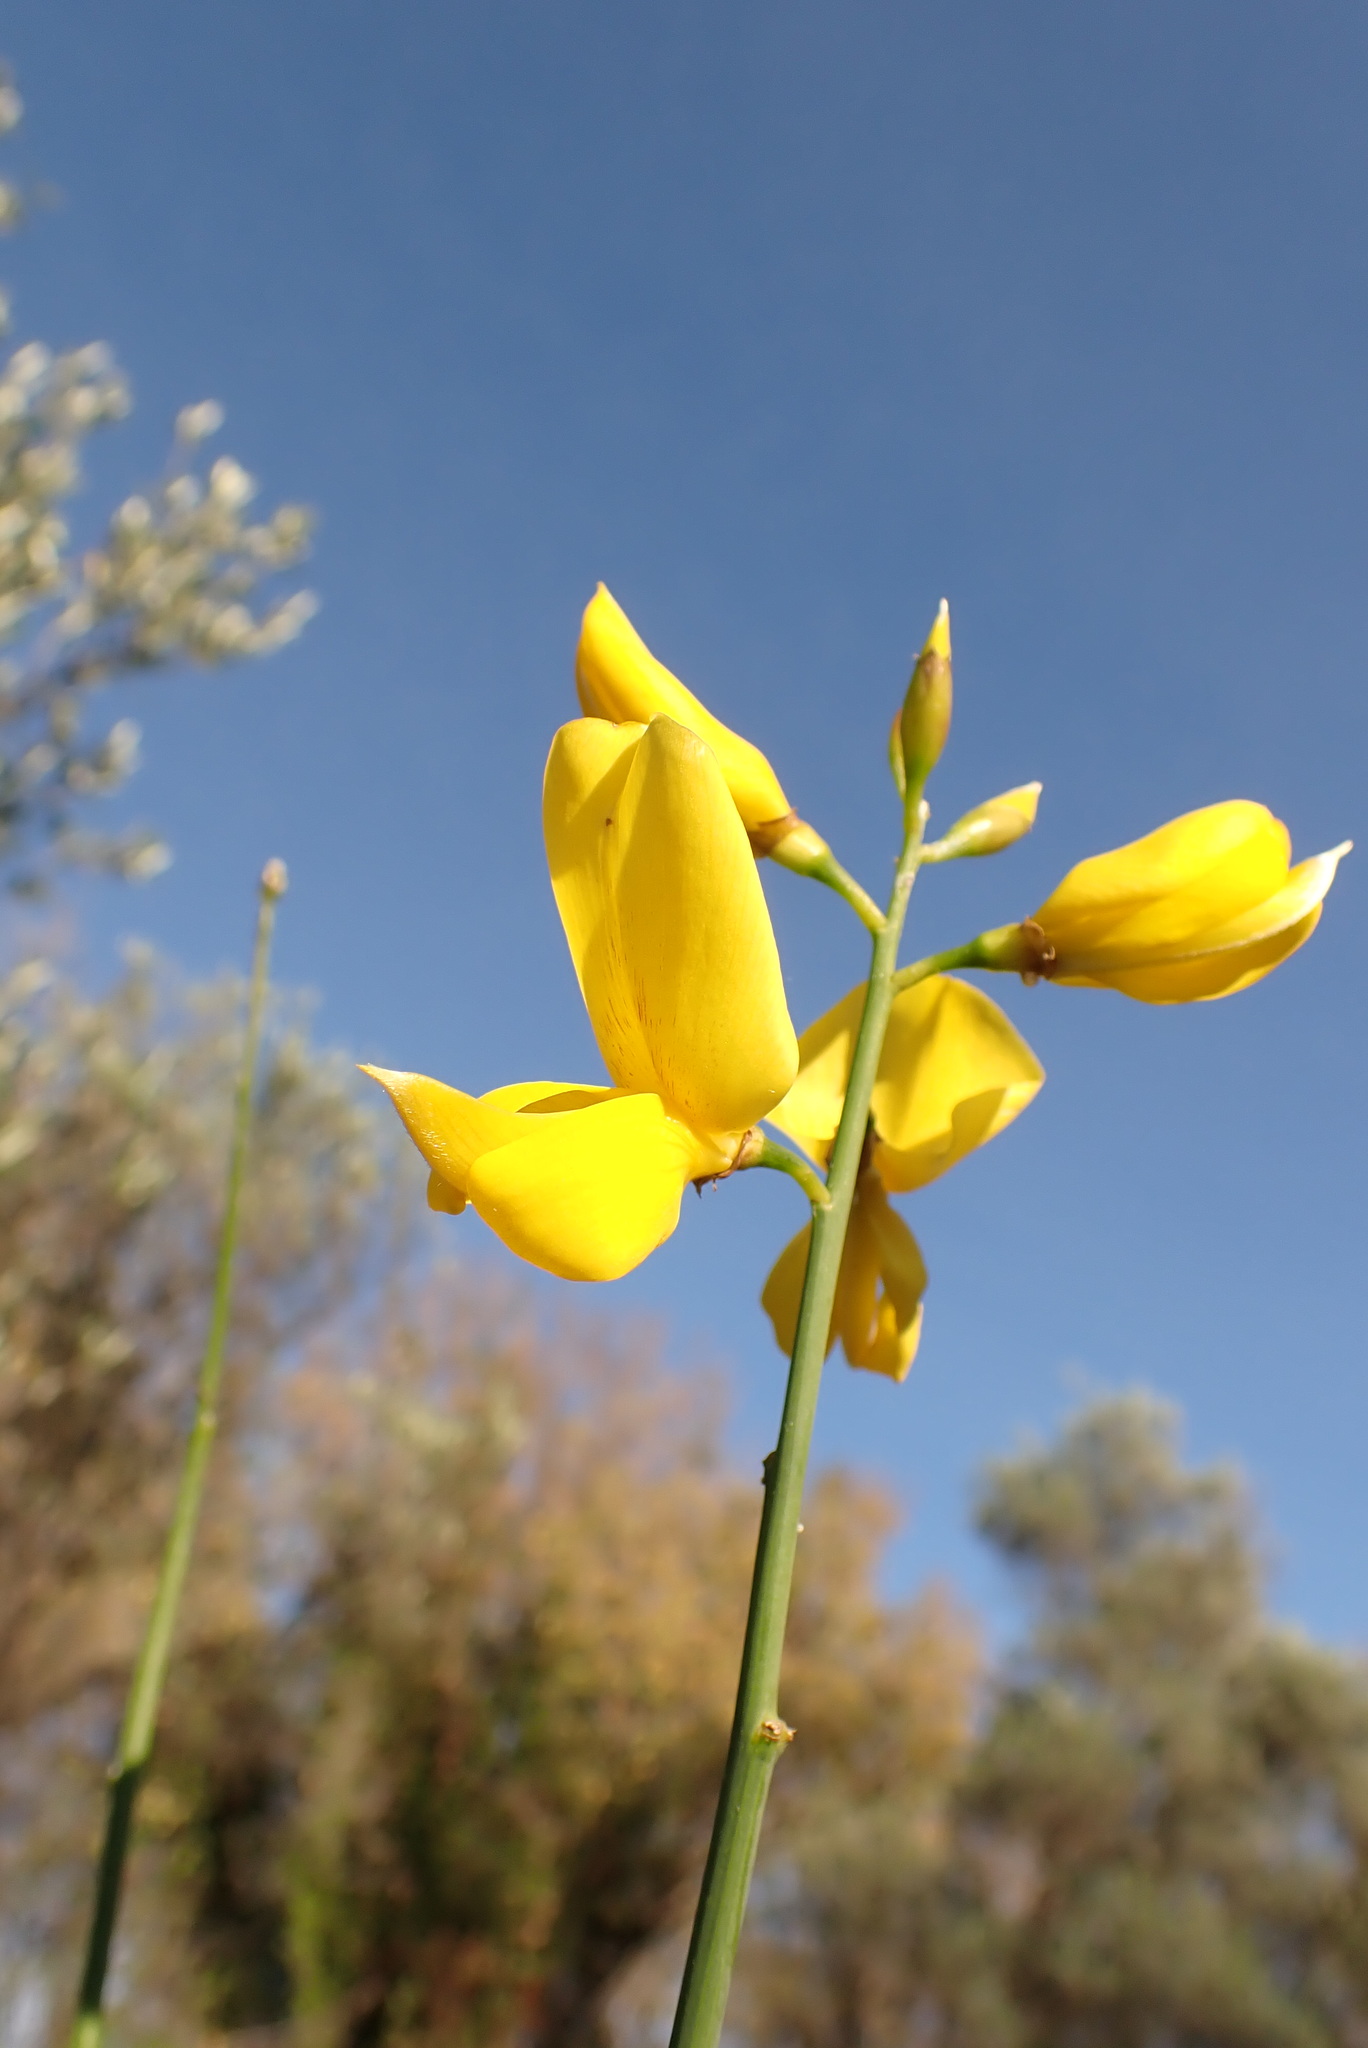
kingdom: Plantae
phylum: Tracheophyta
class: Magnoliopsida
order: Fabales
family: Fabaceae
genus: Spartium
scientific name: Spartium junceum
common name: Spanish broom
